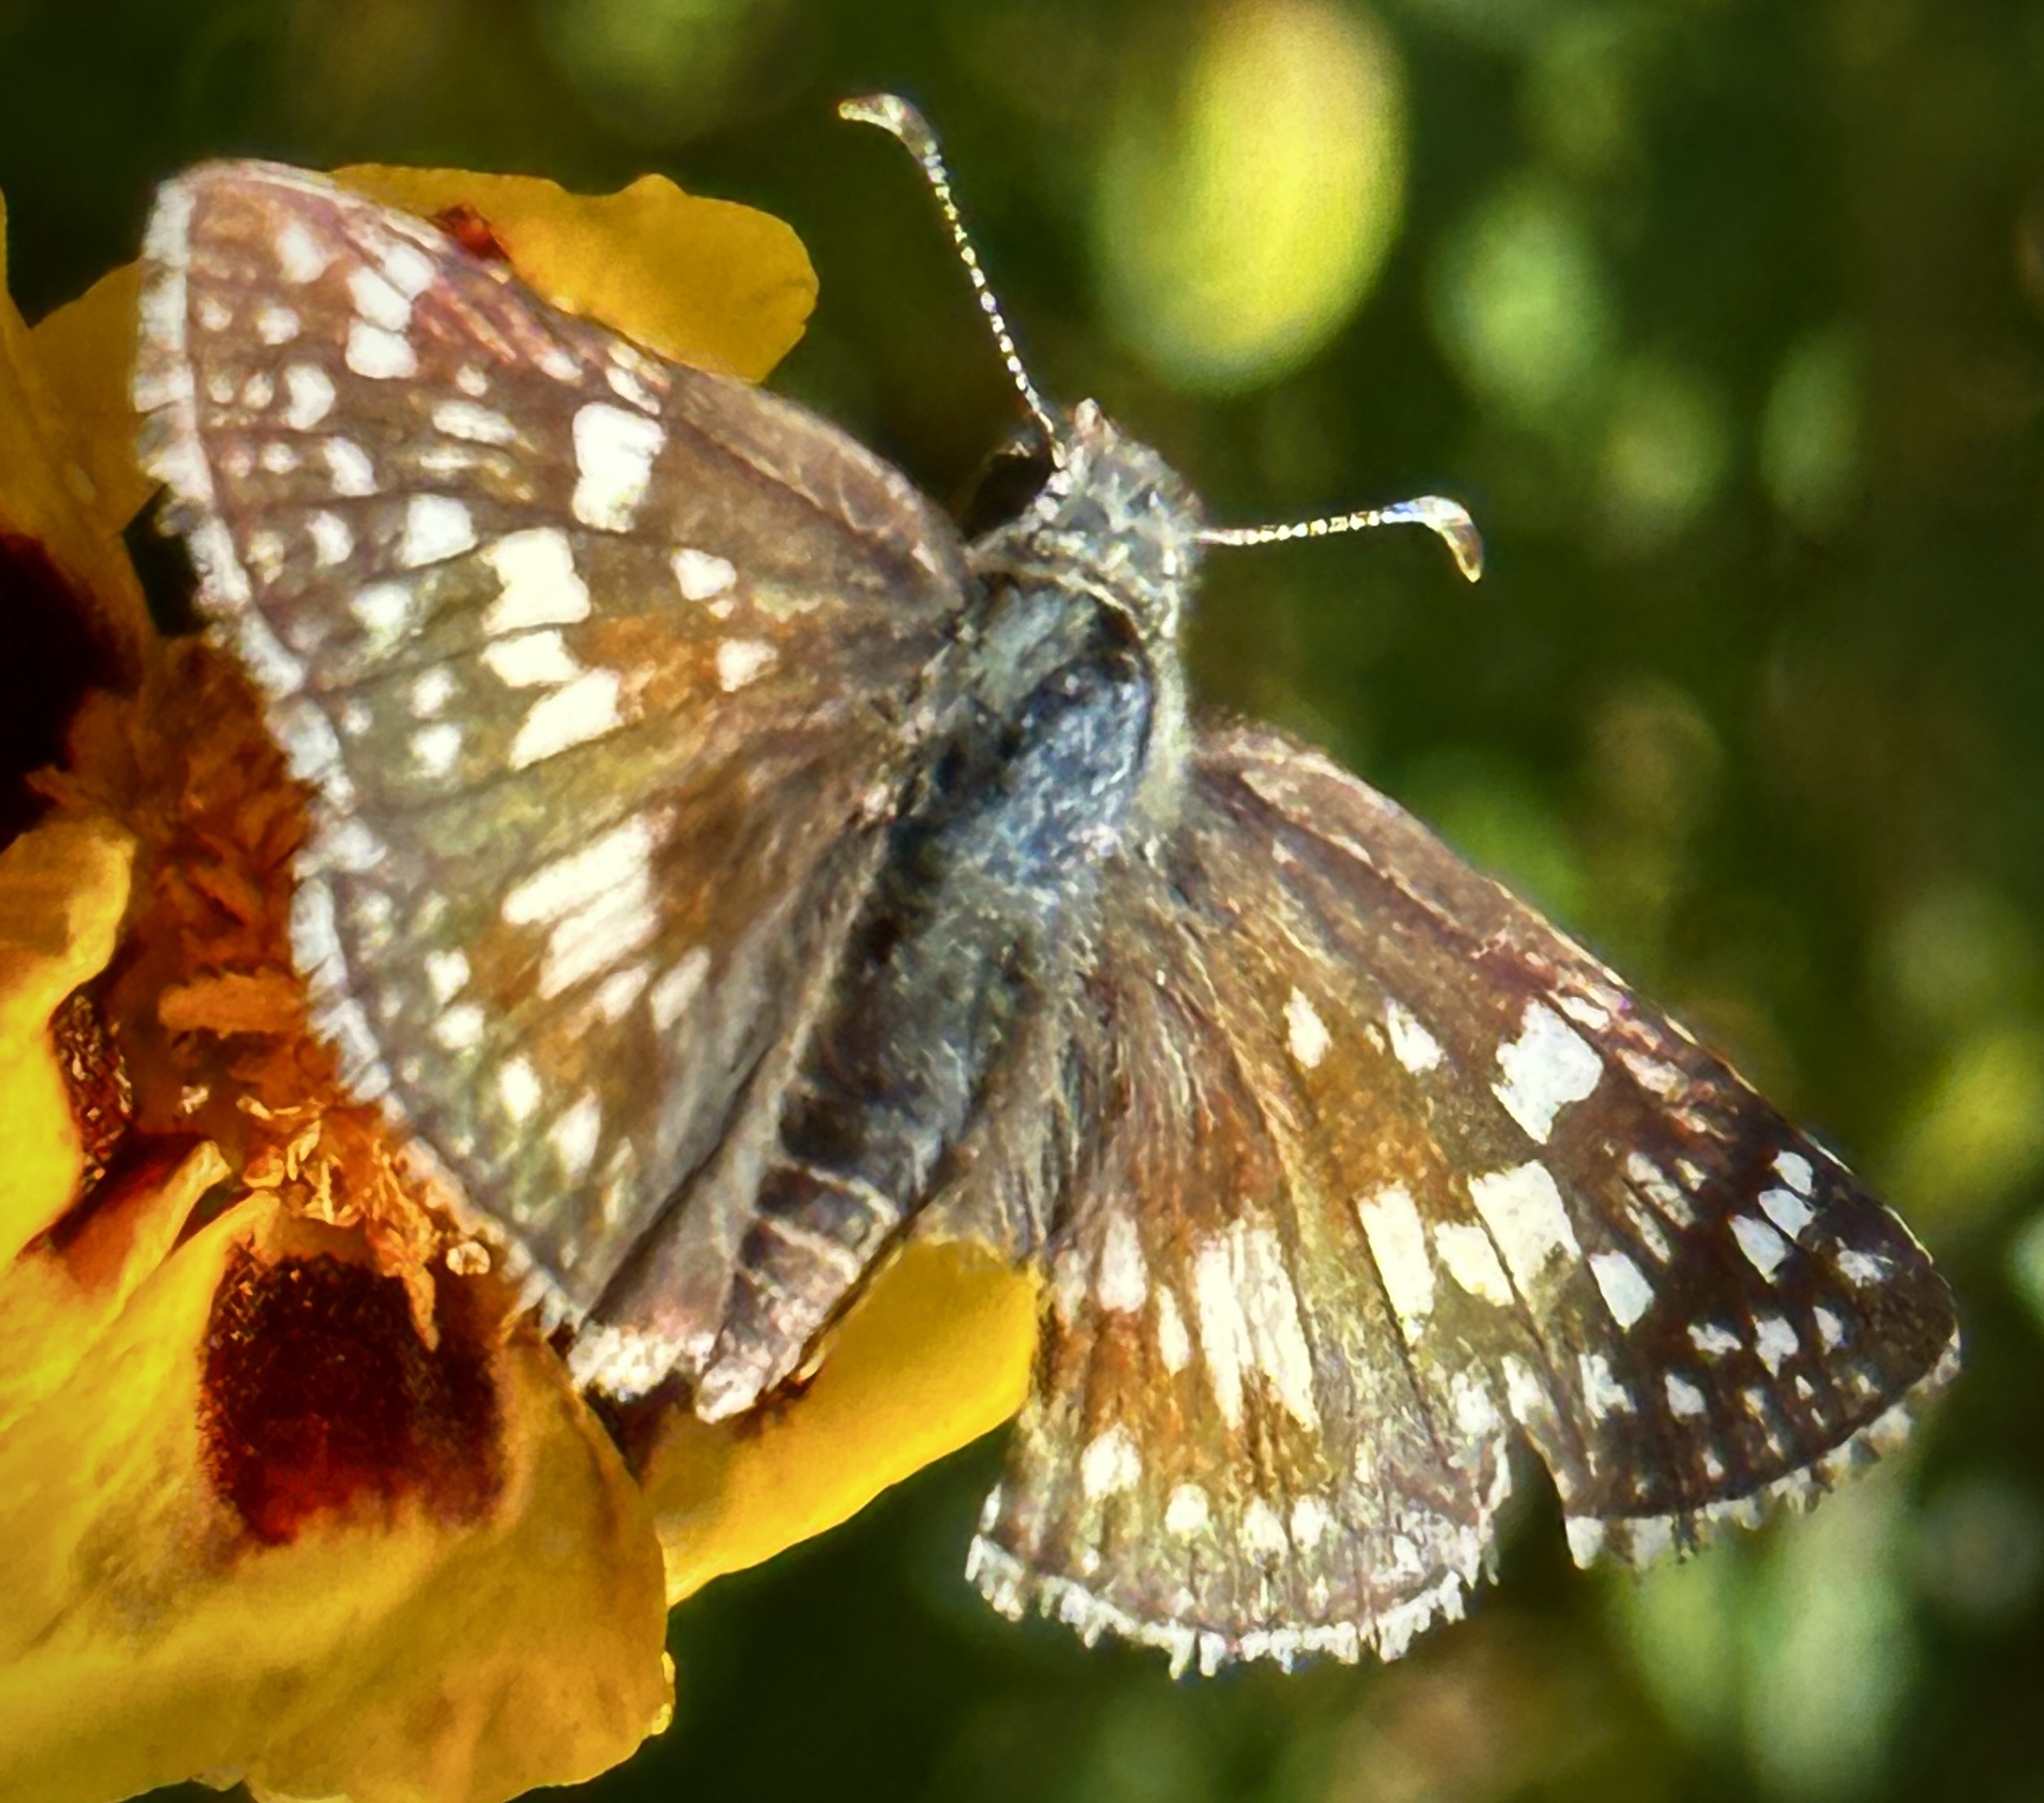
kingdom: Animalia
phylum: Arthropoda
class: Insecta
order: Lepidoptera
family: Hesperiidae
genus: Burnsius
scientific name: Burnsius communis
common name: Common checkered-skipper
